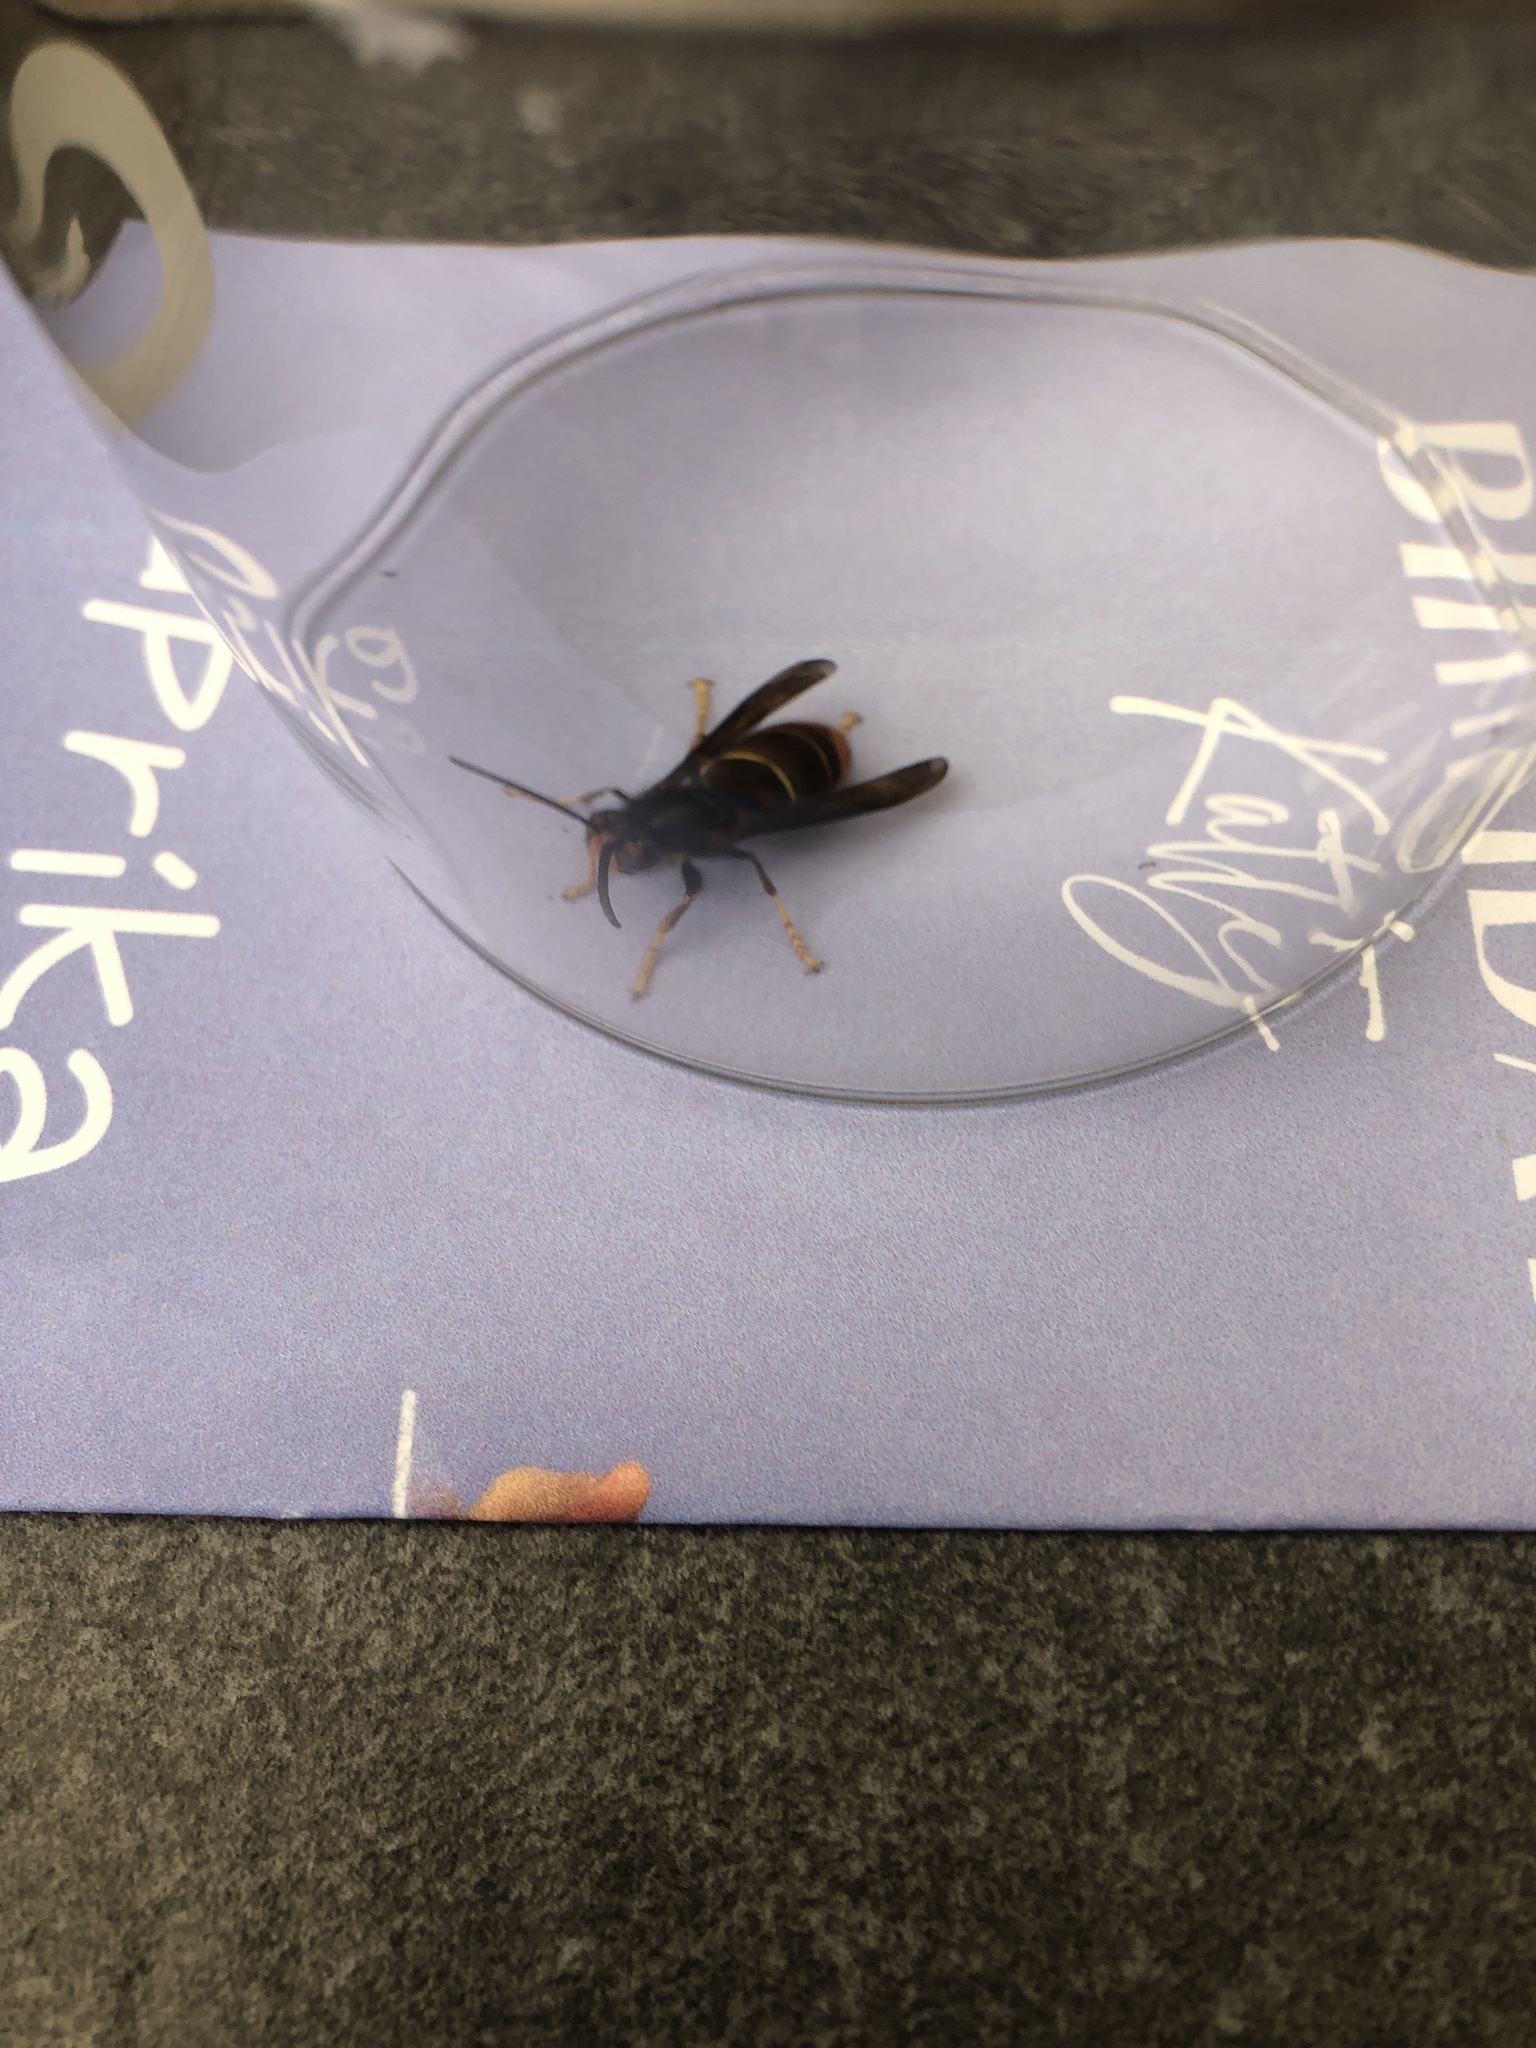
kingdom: Animalia
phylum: Arthropoda
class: Insecta
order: Hymenoptera
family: Vespidae
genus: Vespa
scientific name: Vespa velutina
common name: Asian hornet
